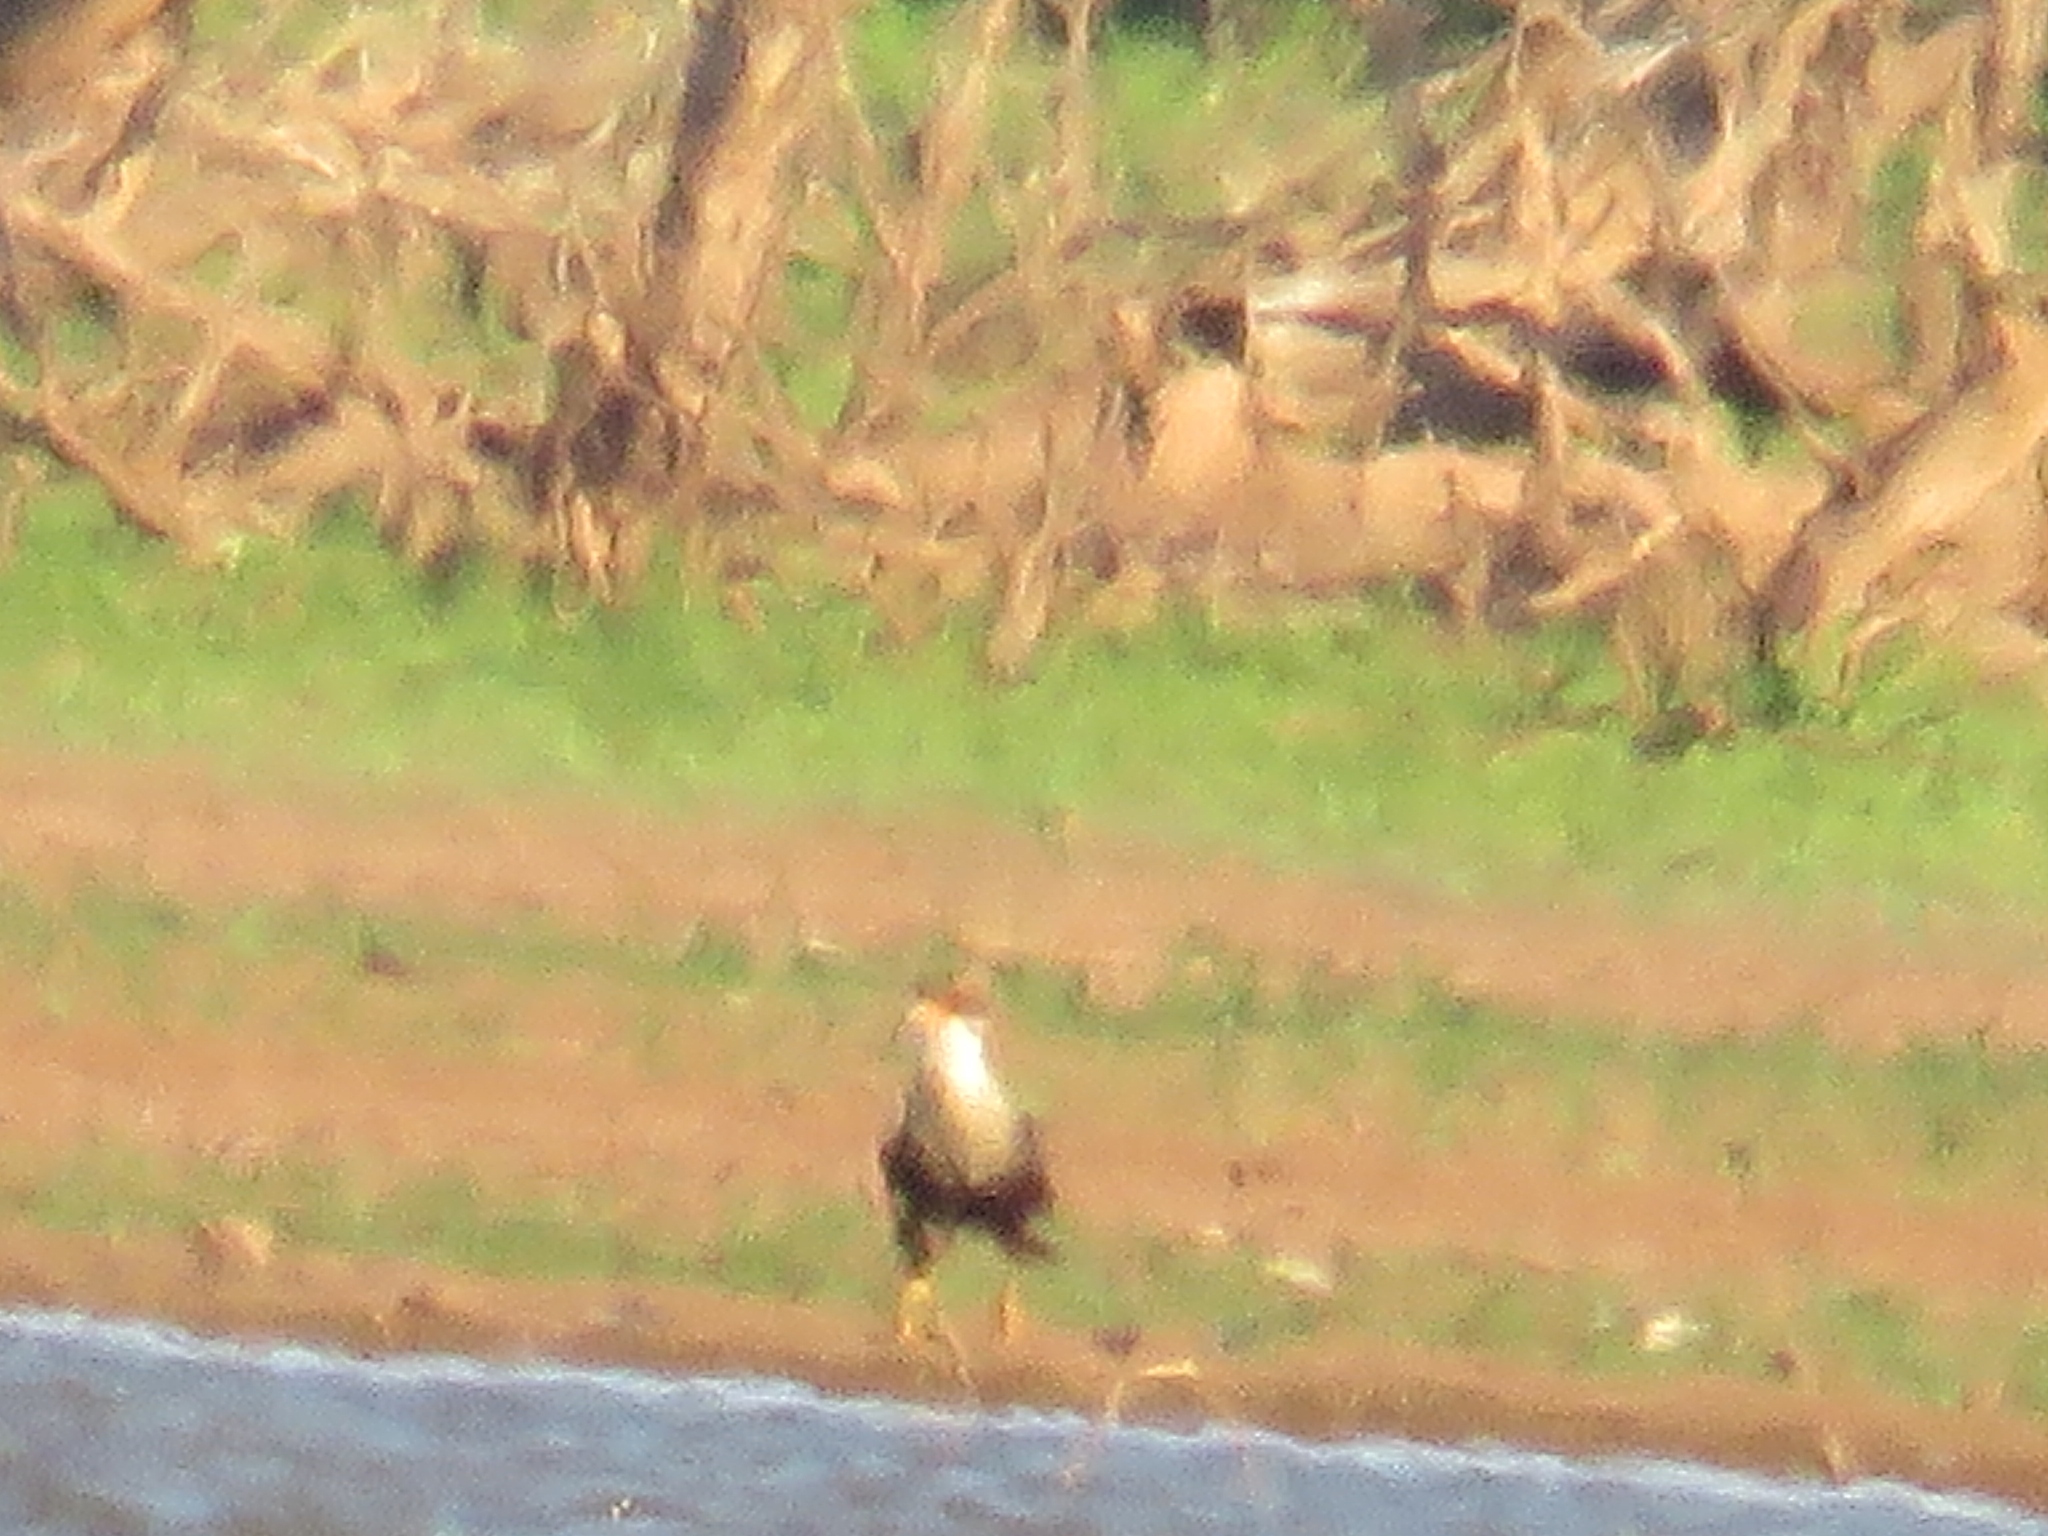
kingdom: Animalia
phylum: Chordata
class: Aves
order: Falconiformes
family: Falconidae
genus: Caracara
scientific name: Caracara plancus
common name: Southern caracara
